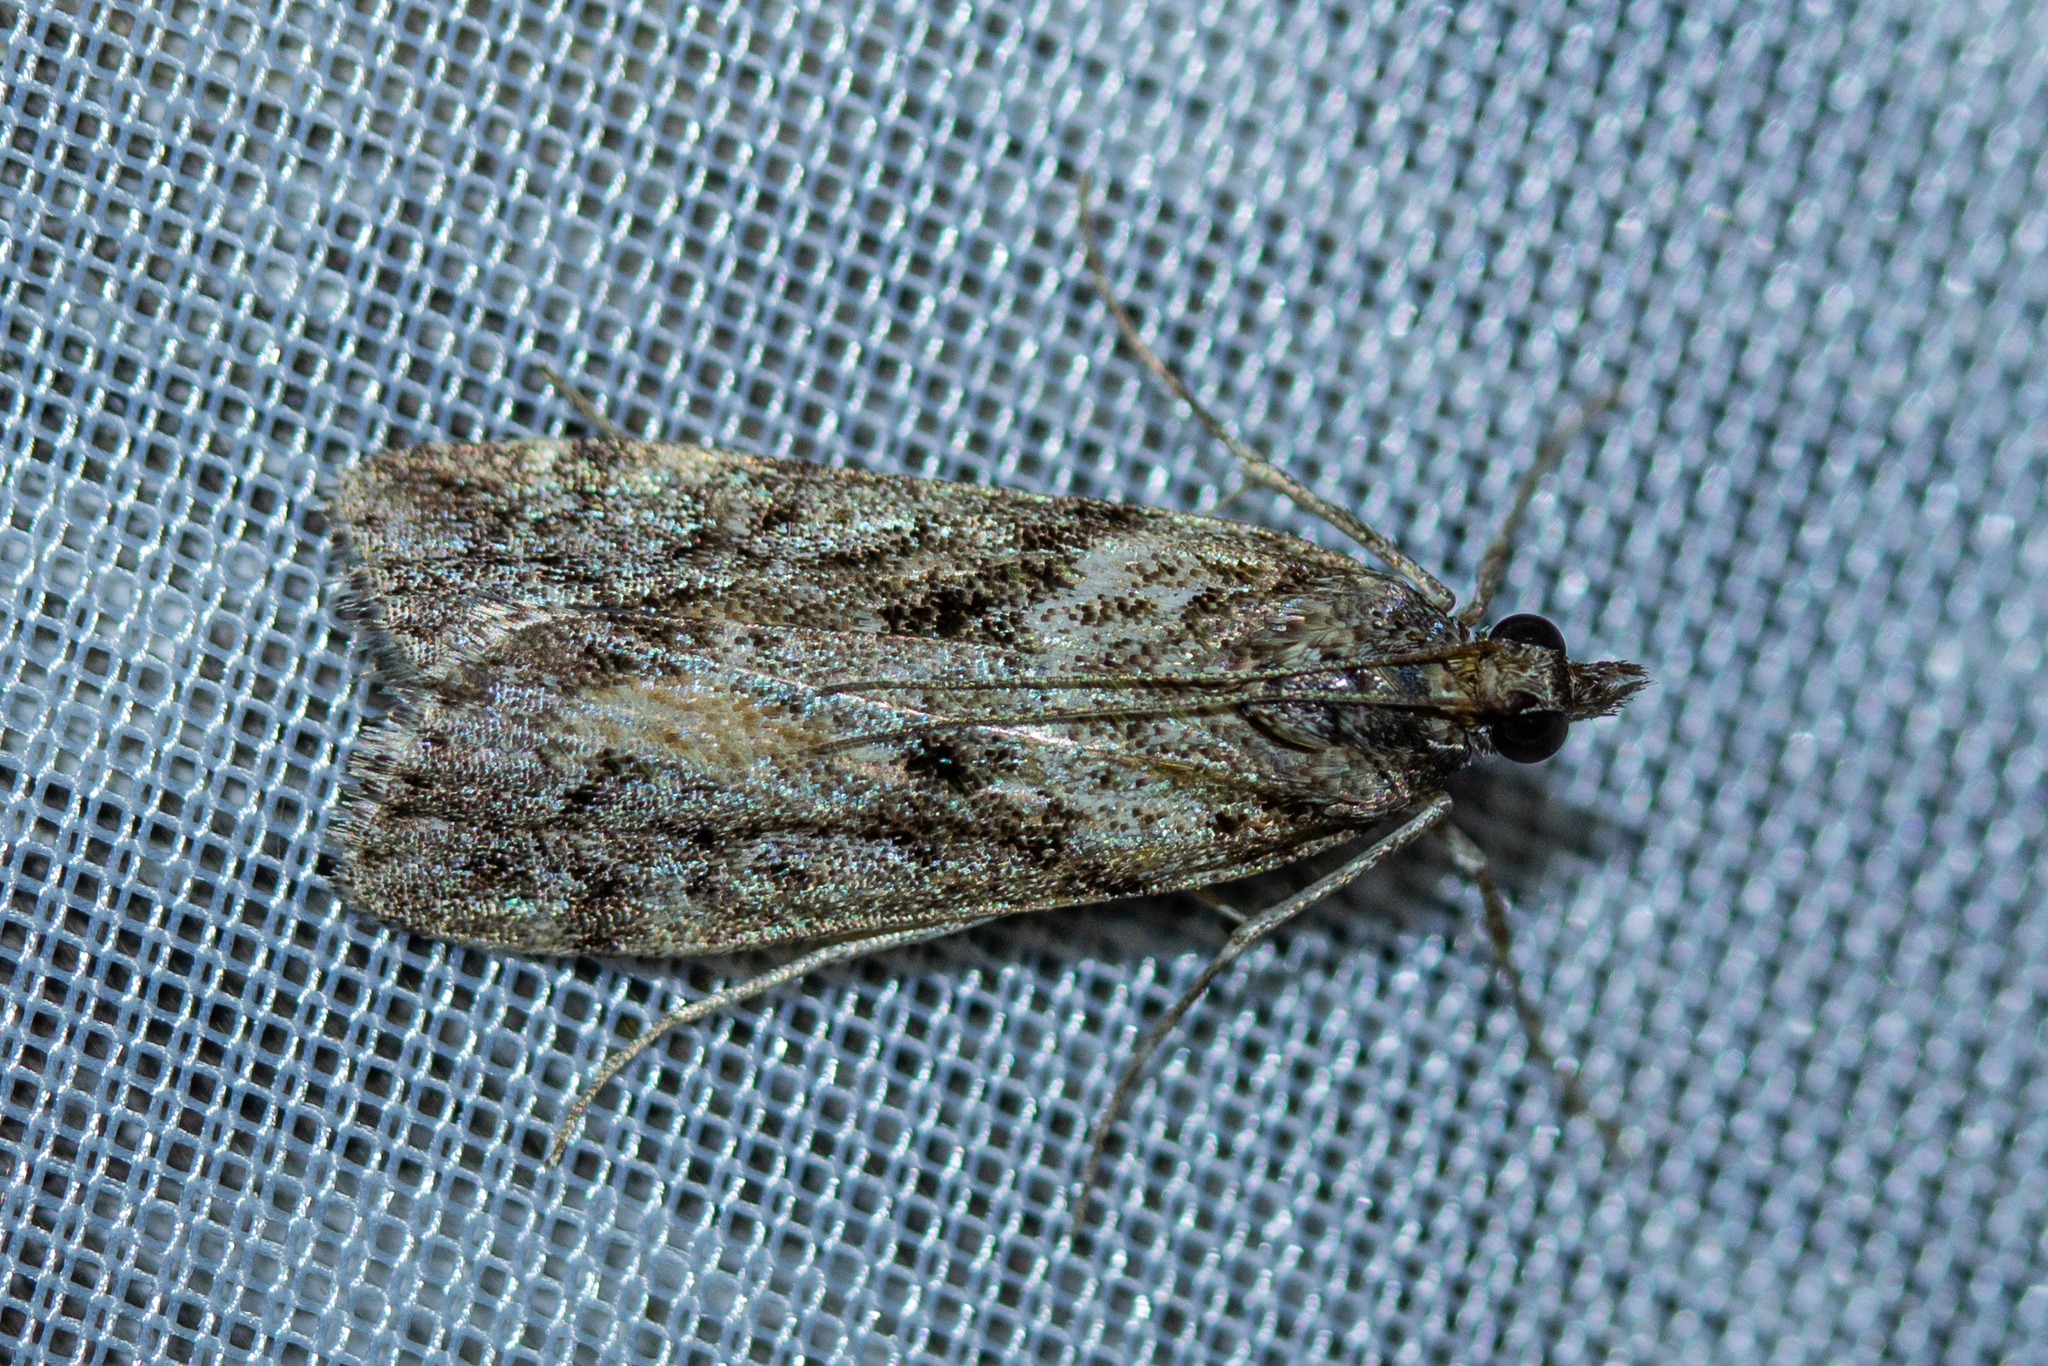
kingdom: Animalia
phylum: Arthropoda
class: Insecta
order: Lepidoptera
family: Crambidae
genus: Eudonia
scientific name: Eudonia submarginalis
